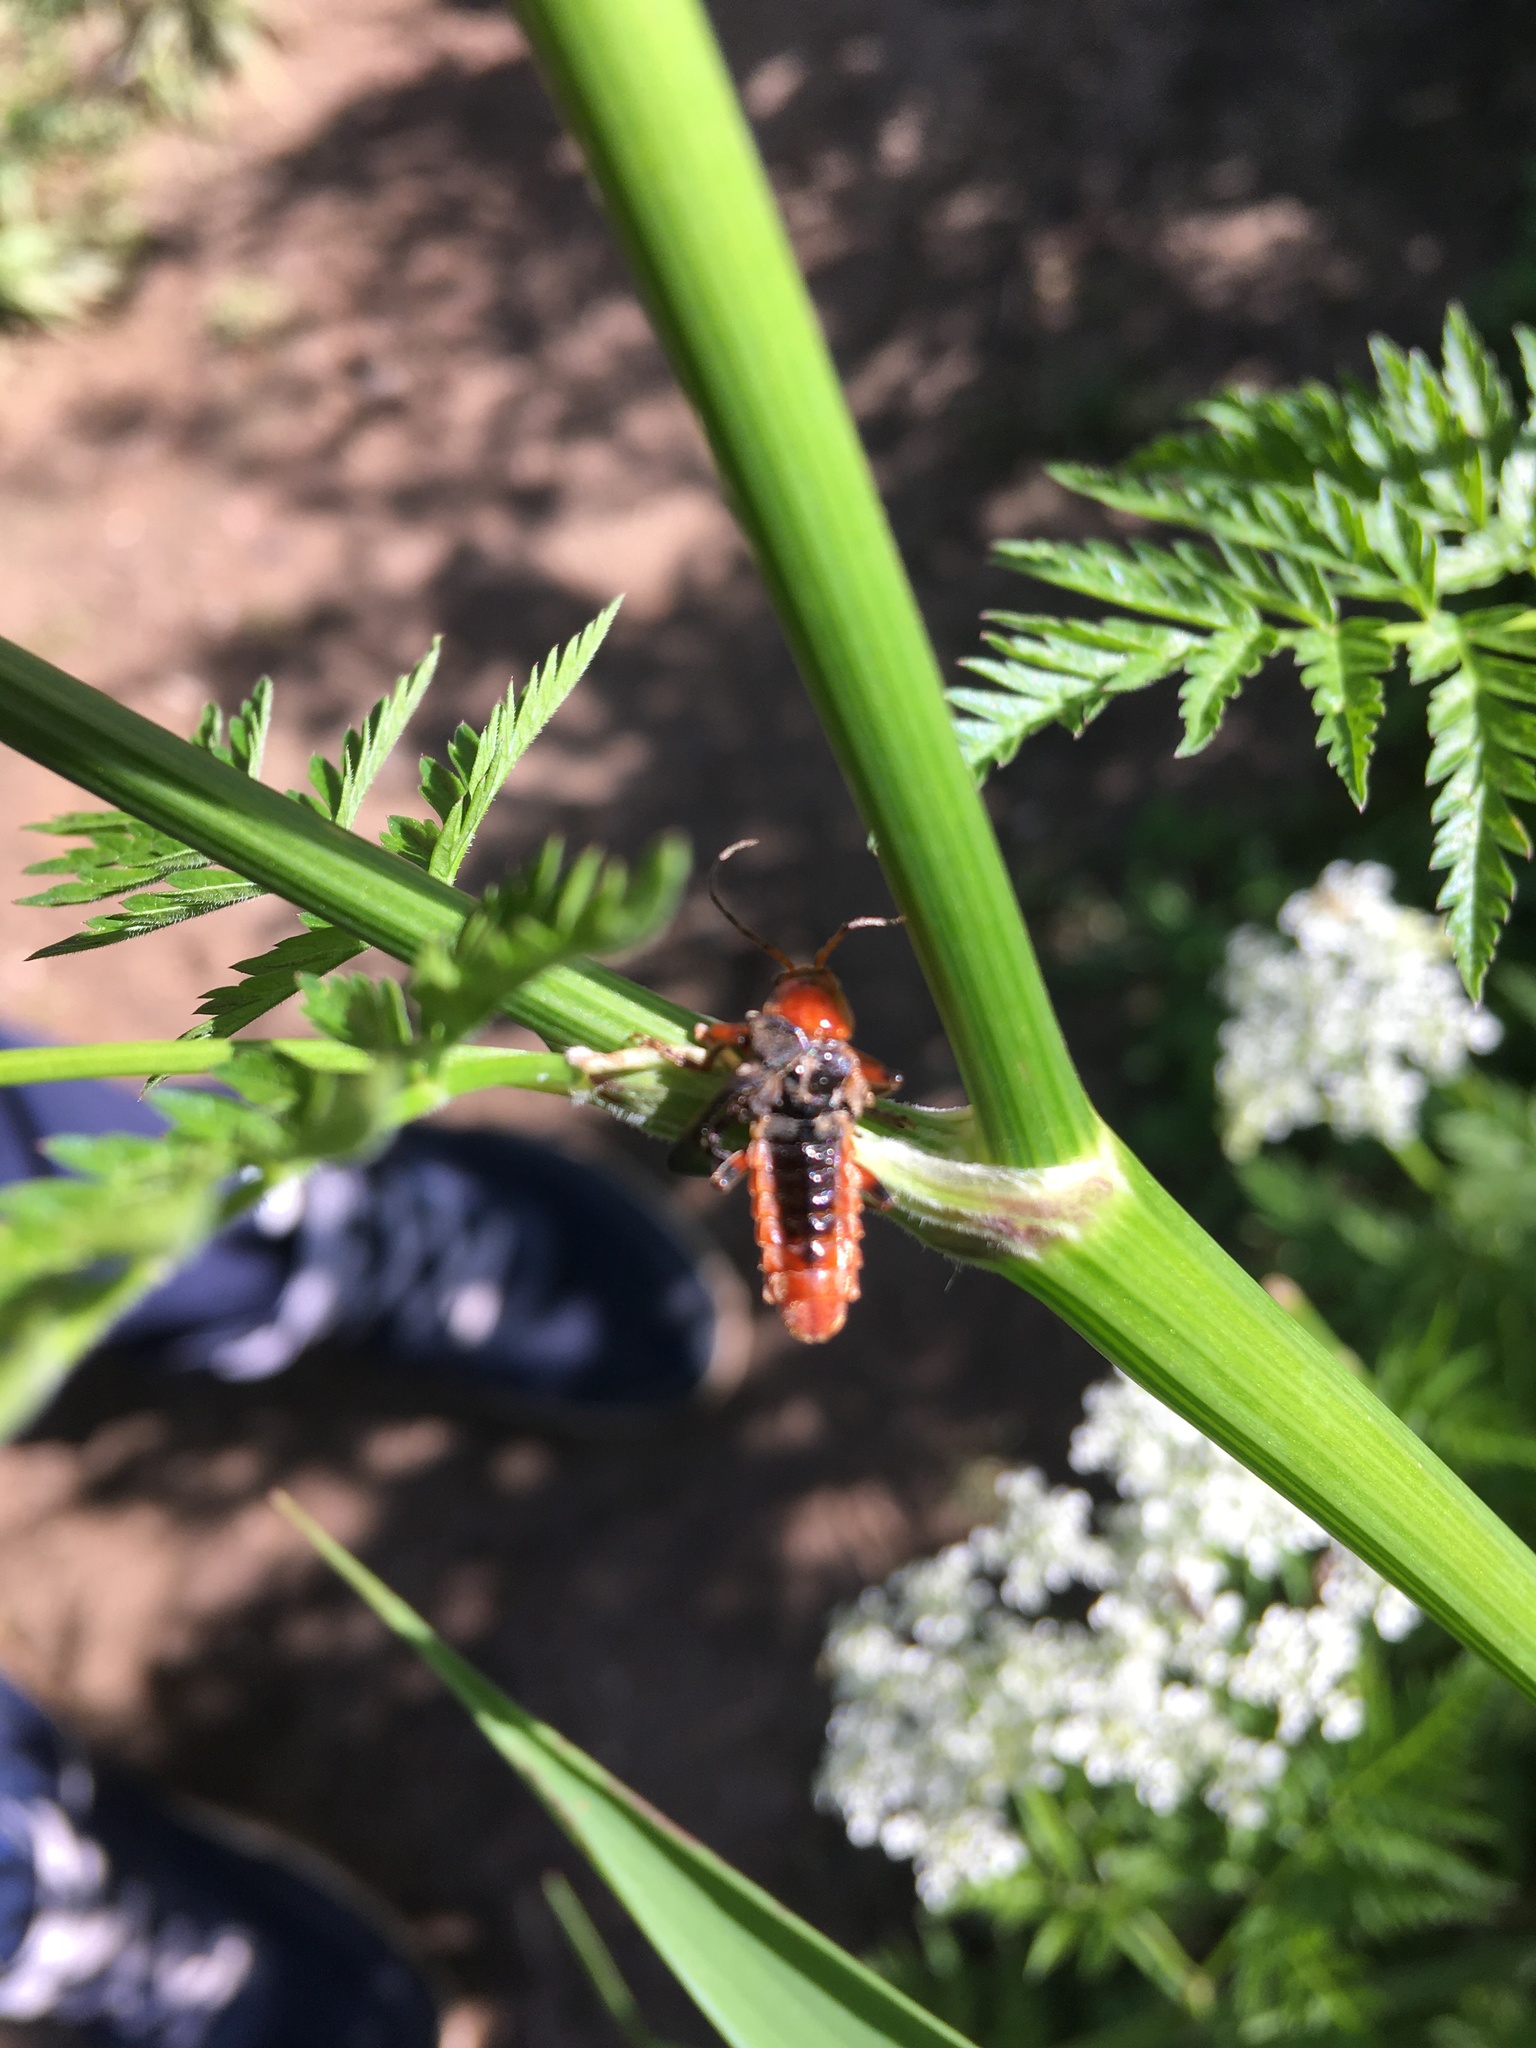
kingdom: Animalia
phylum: Arthropoda
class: Insecta
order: Coleoptera
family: Cantharidae
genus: Cantharis
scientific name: Cantharis livida
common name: Livid soldier beetle
